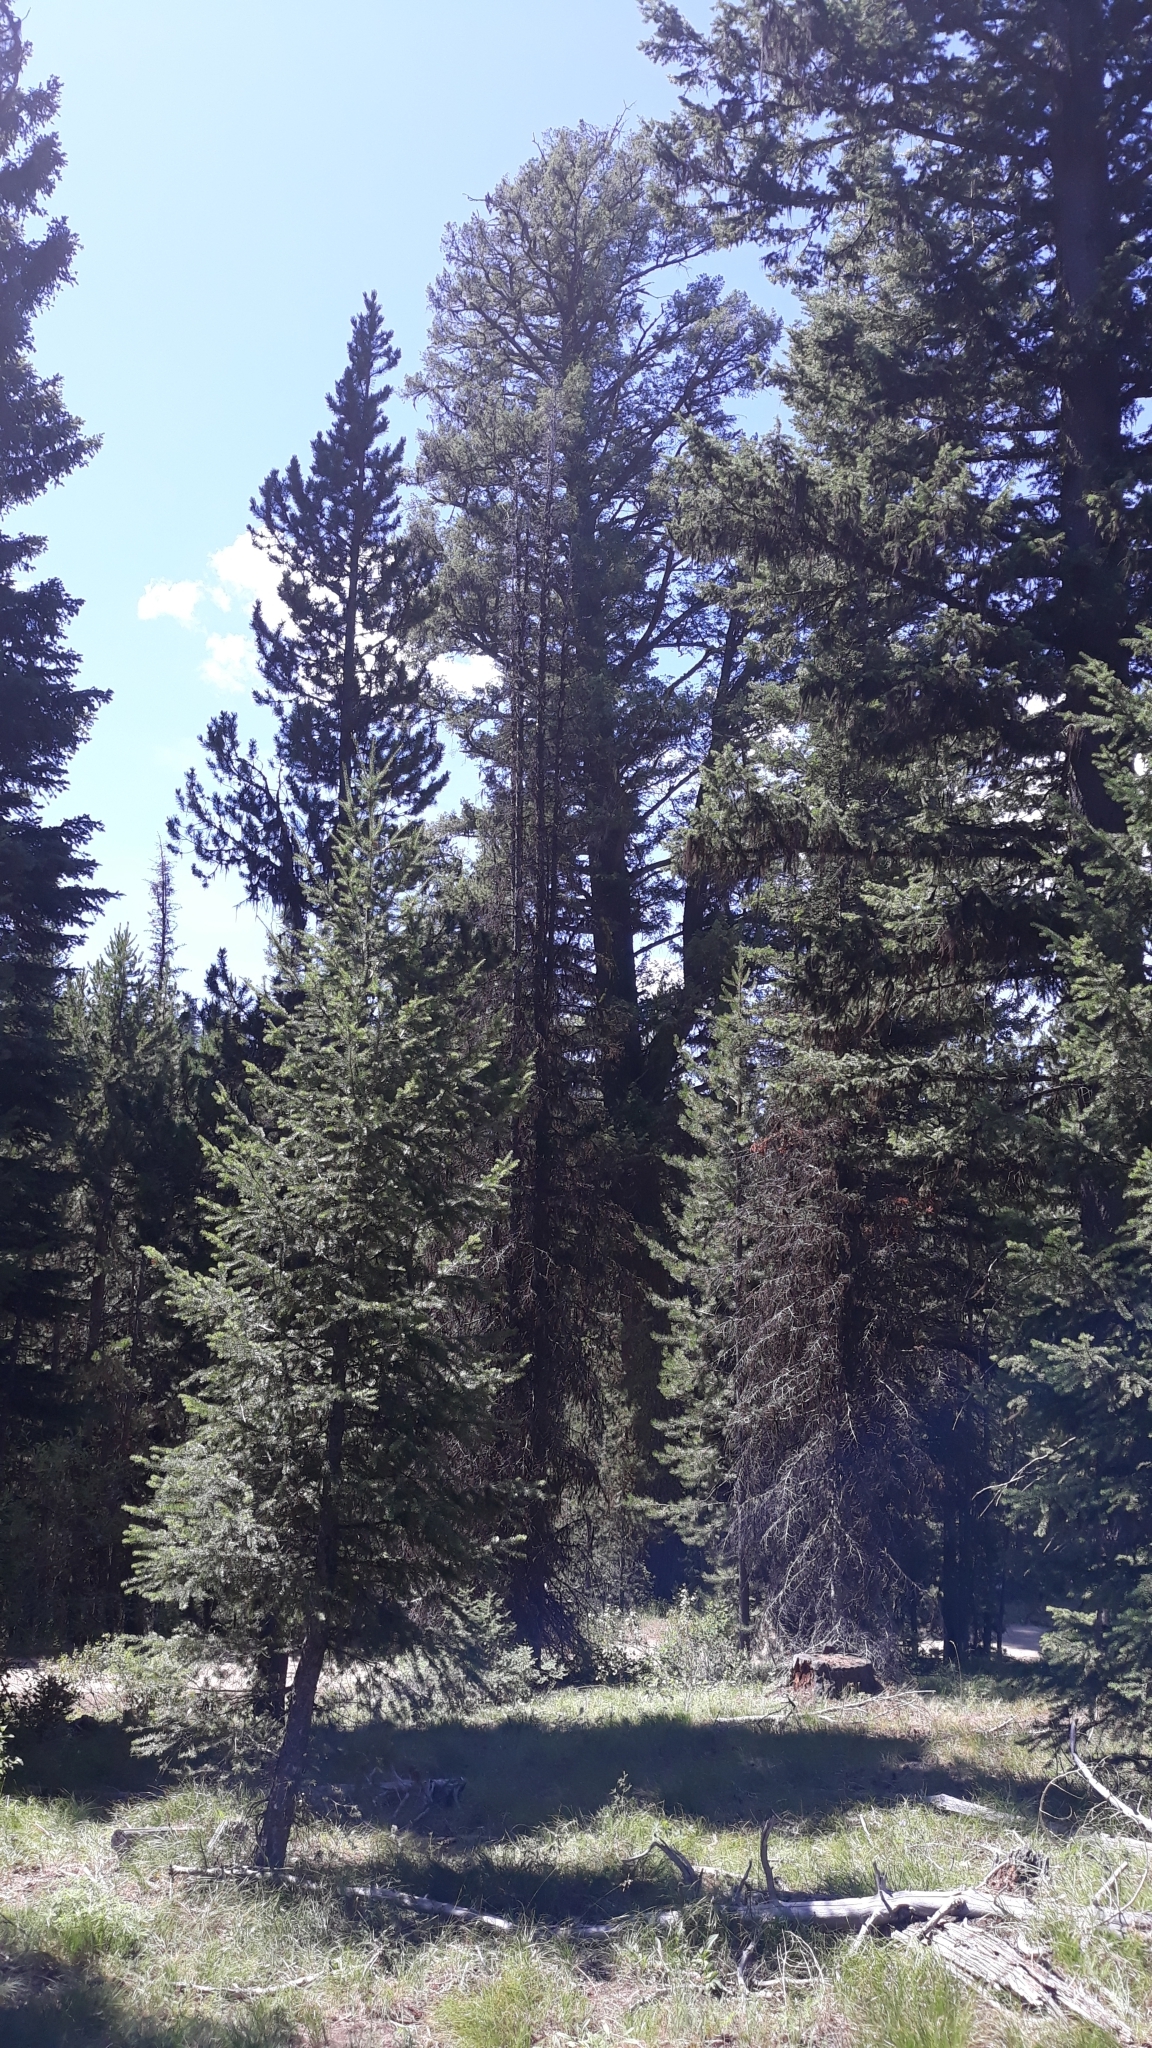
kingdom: Plantae
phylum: Tracheophyta
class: Pinopsida
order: Pinales
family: Pinaceae
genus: Pseudotsuga
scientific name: Pseudotsuga menziesii
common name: Douglas fir
